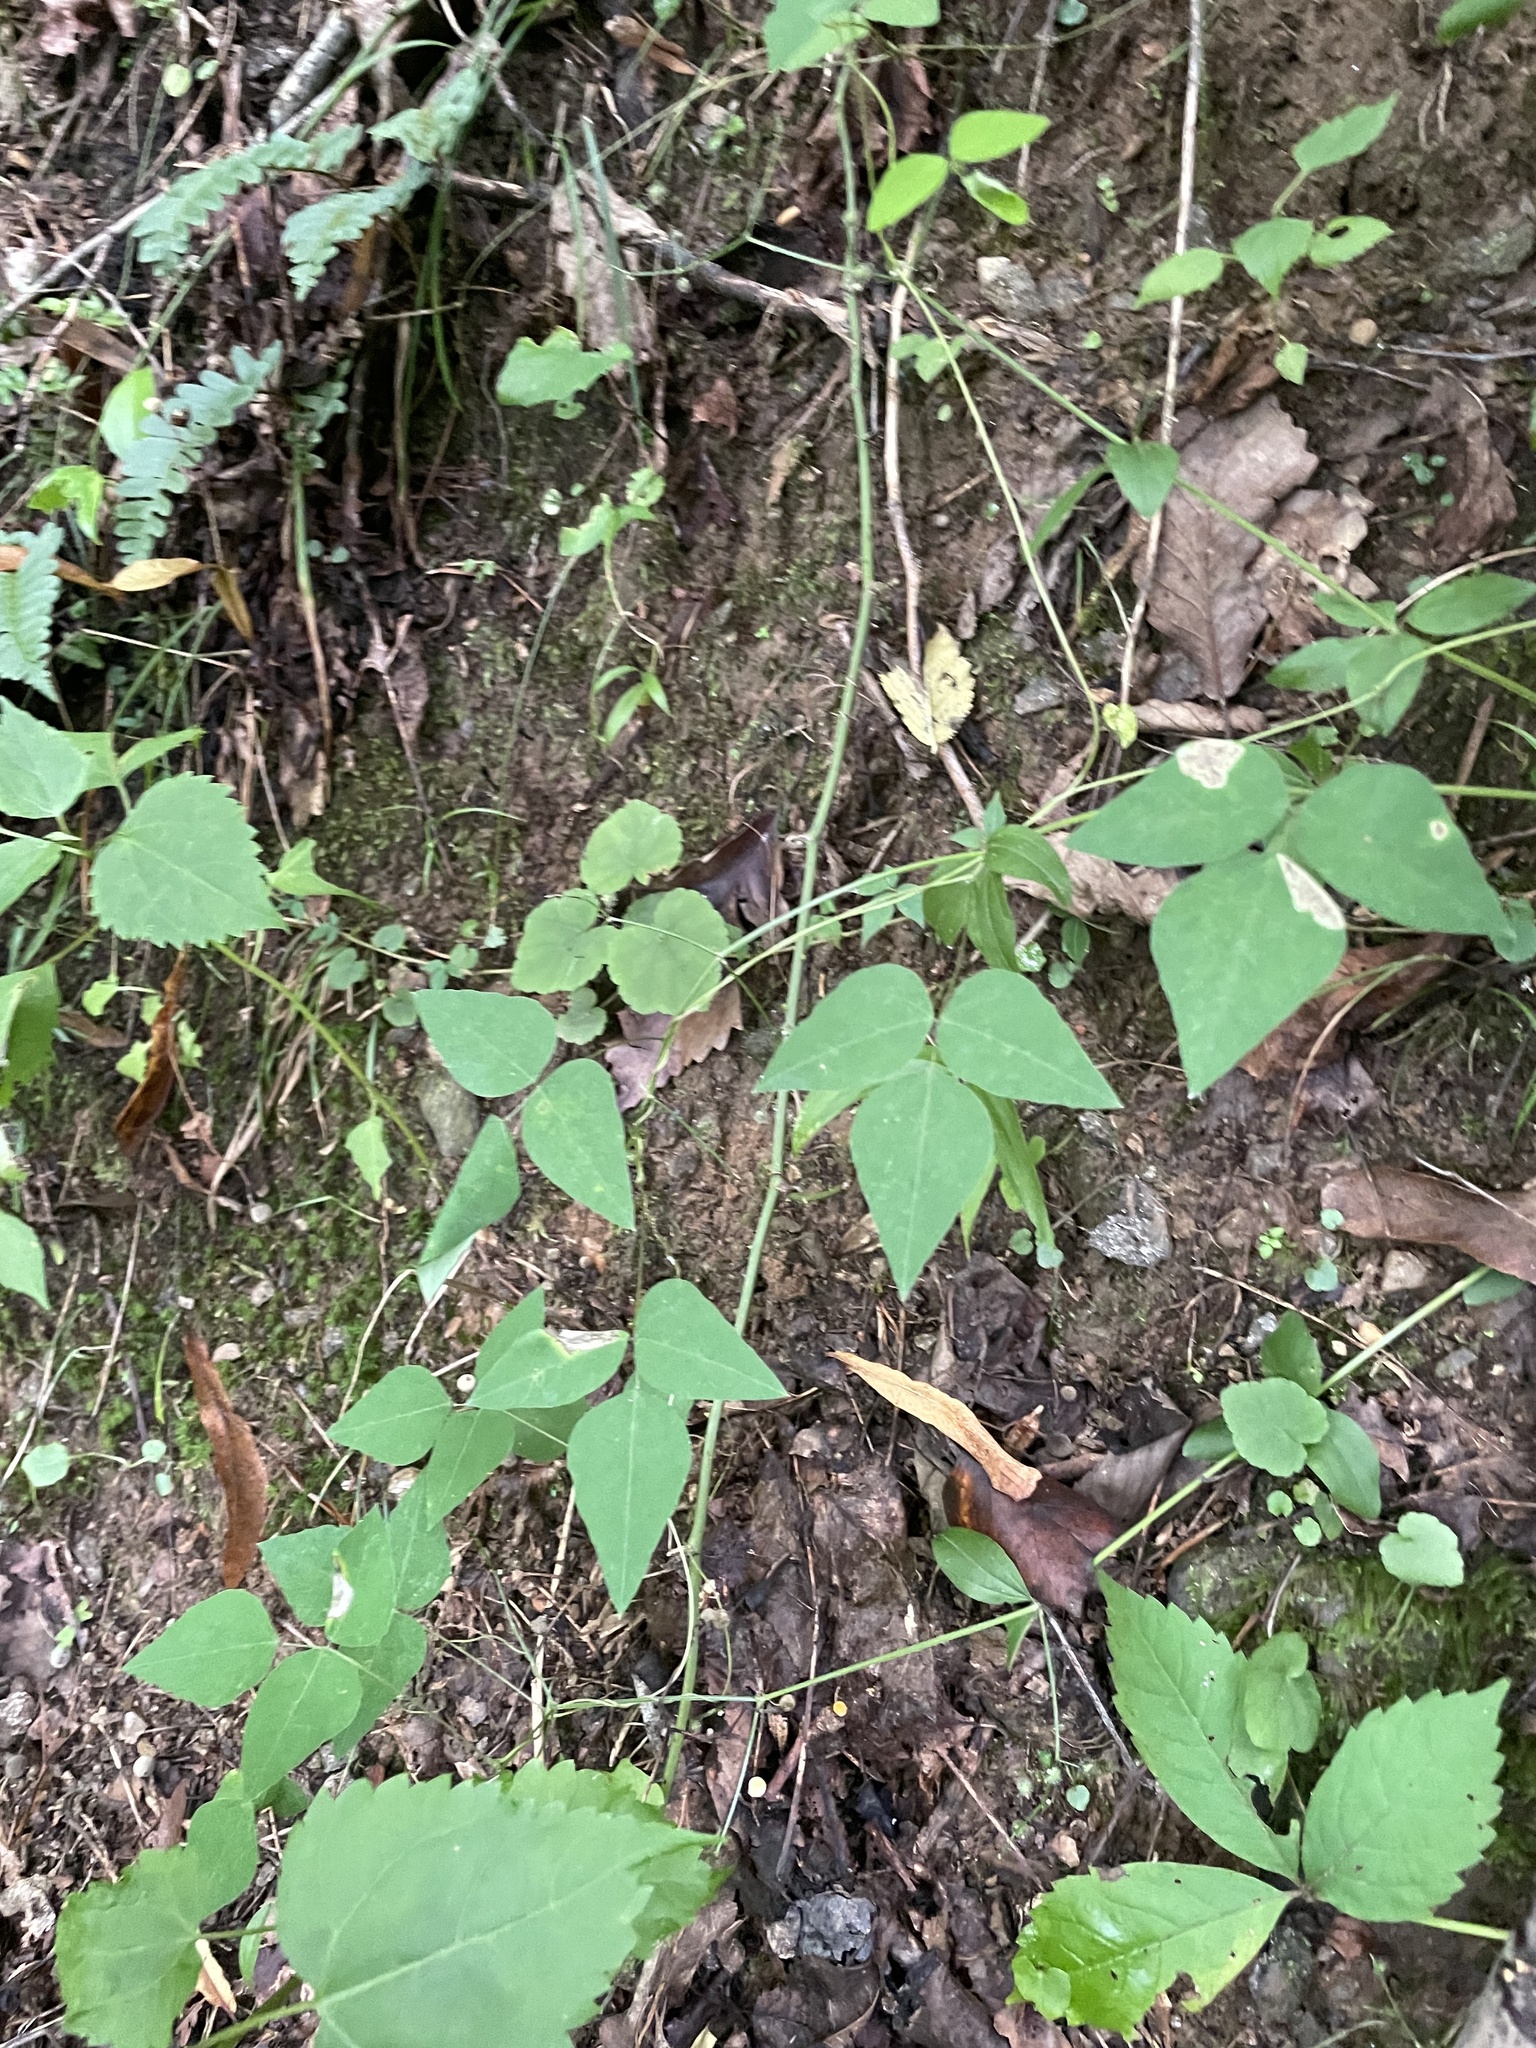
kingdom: Plantae
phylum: Tracheophyta
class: Magnoliopsida
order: Fabales
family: Fabaceae
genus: Amphicarpaea
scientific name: Amphicarpaea bracteata
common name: American hog peanut
